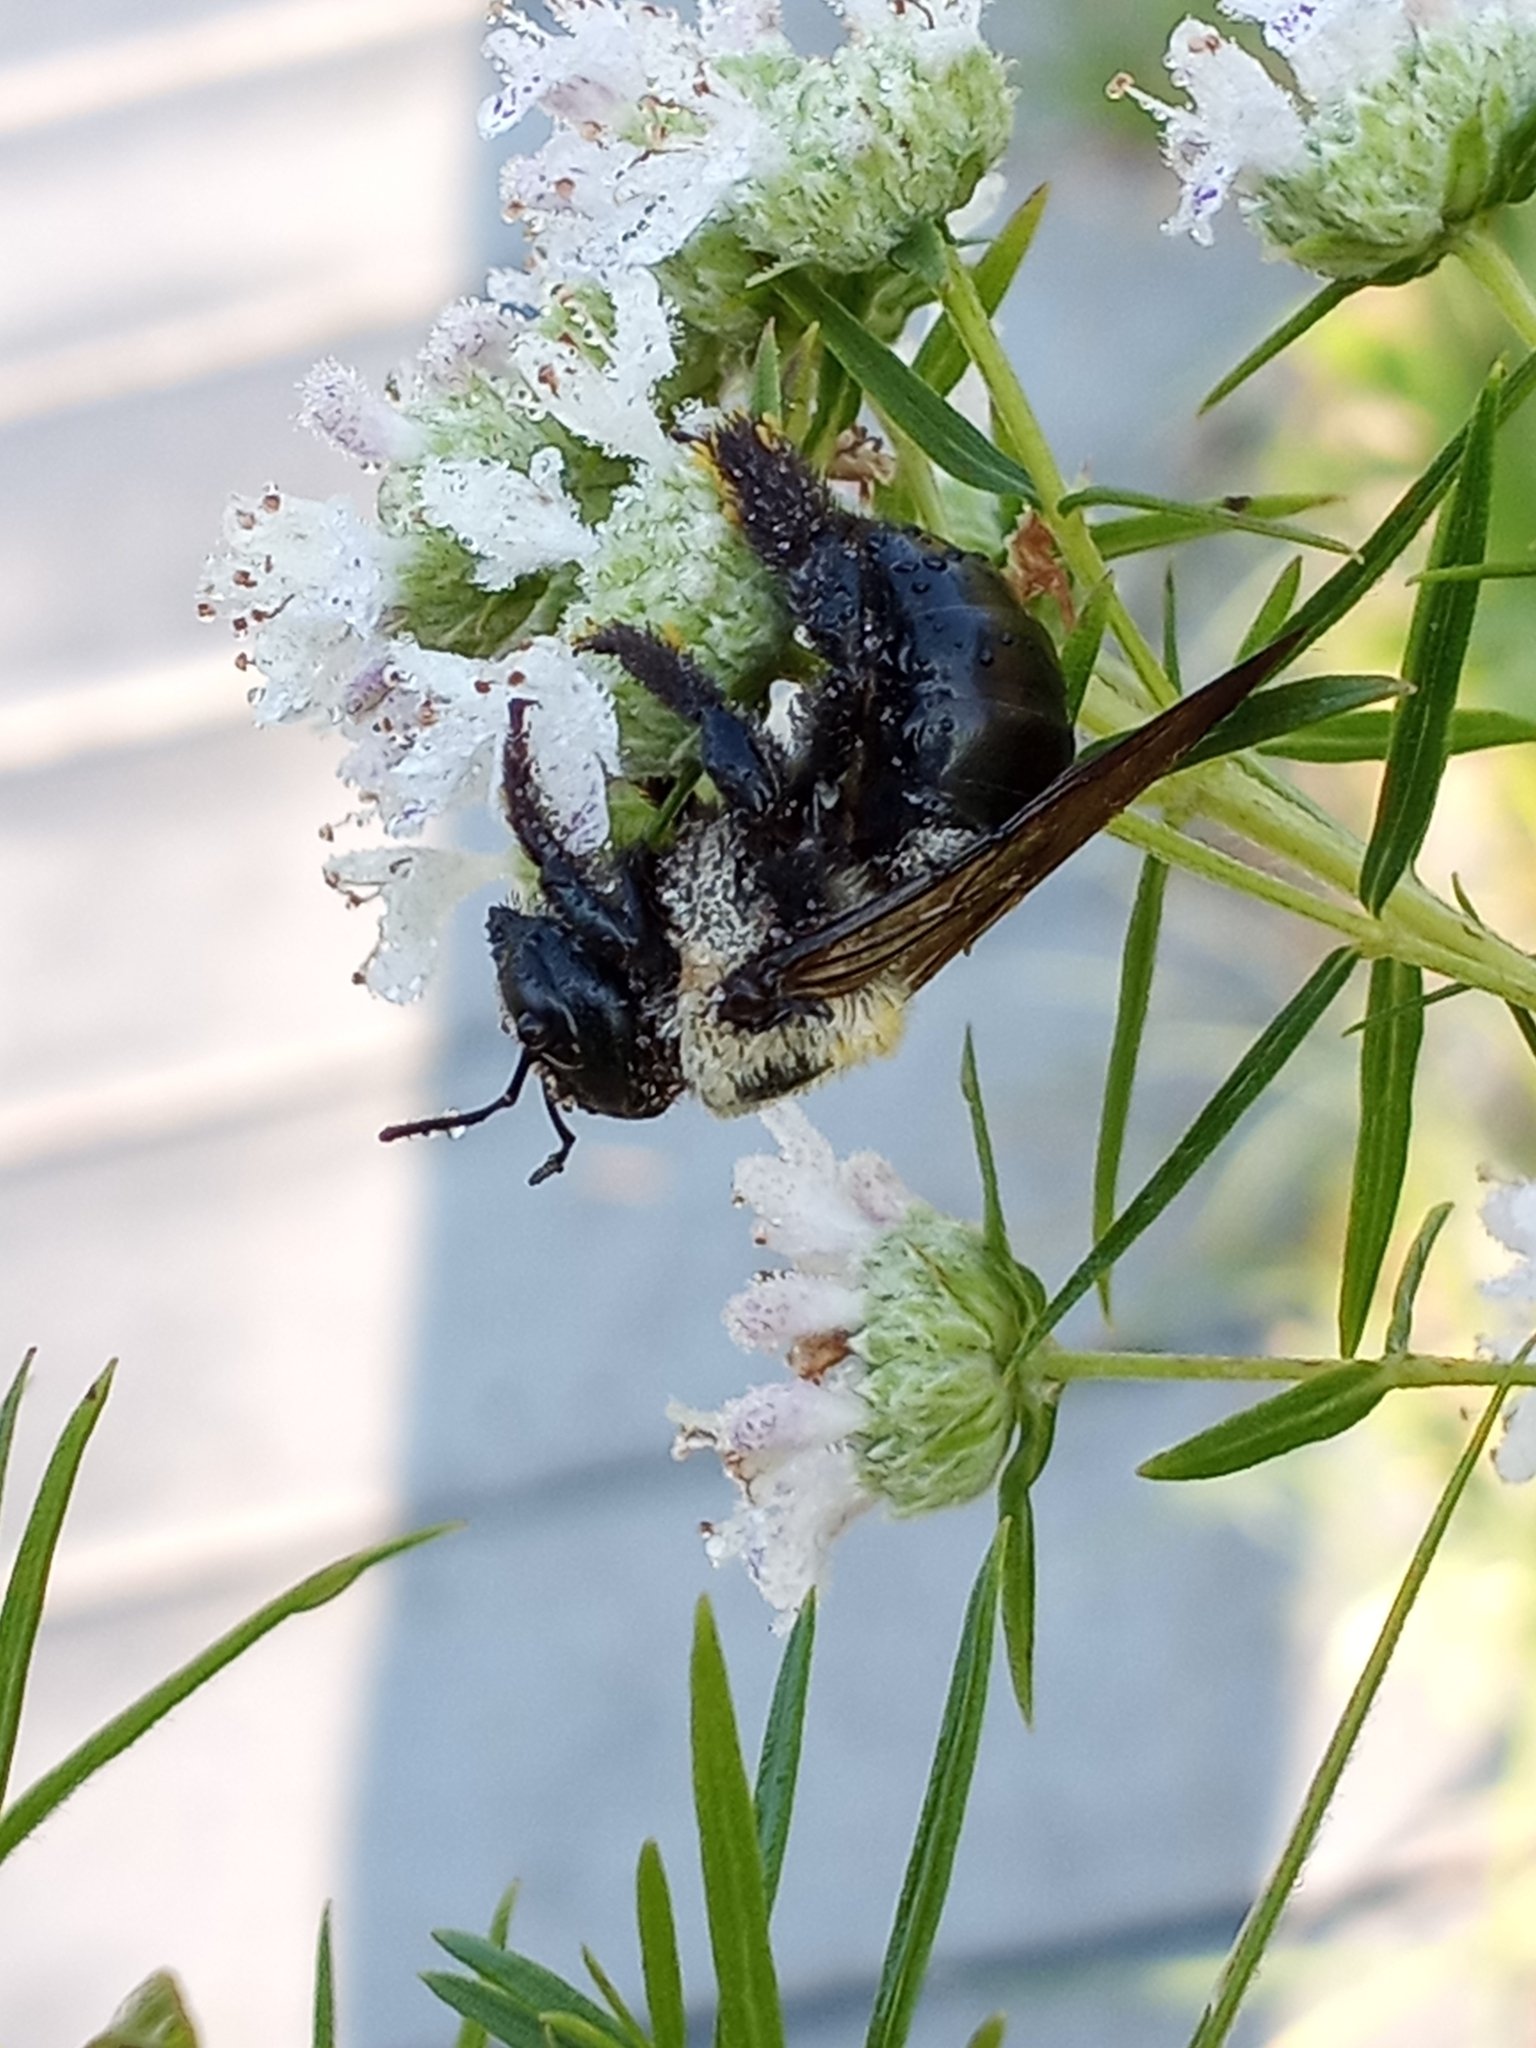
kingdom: Animalia
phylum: Arthropoda
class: Insecta
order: Hymenoptera
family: Apidae
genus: Xylocopa
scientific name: Xylocopa virginica
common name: Carpenter bee
